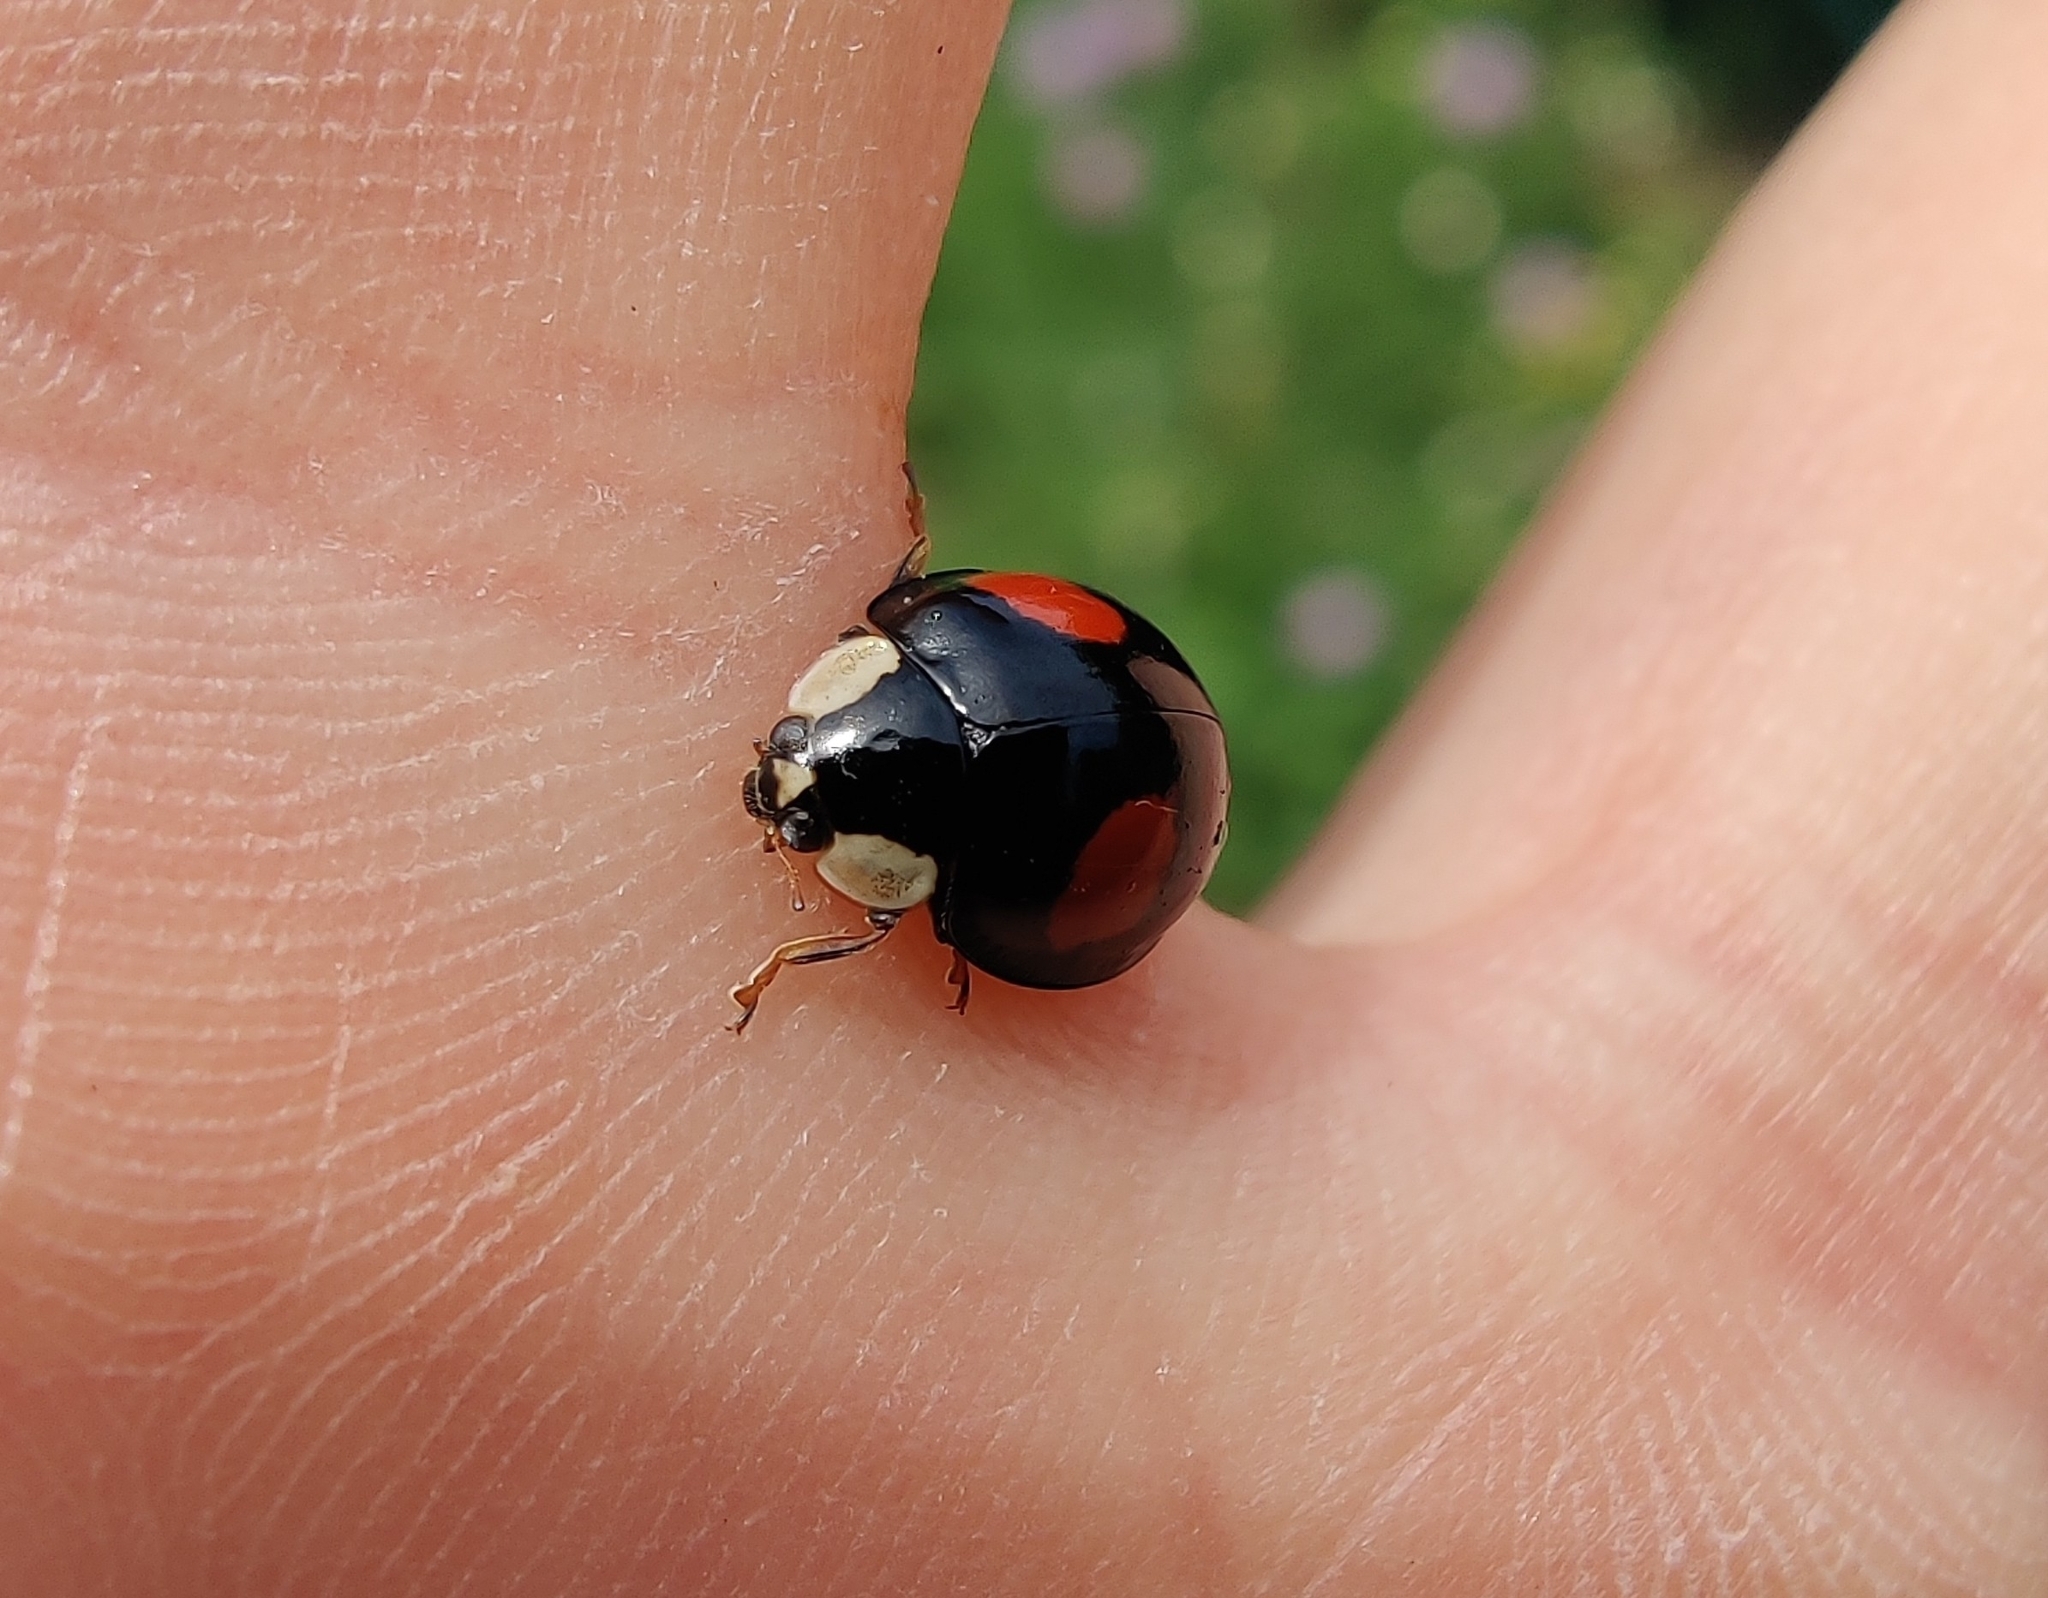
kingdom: Animalia
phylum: Arthropoda
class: Insecta
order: Coleoptera
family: Coccinellidae
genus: Harmonia
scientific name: Harmonia axyridis
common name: Harlequin ladybird
